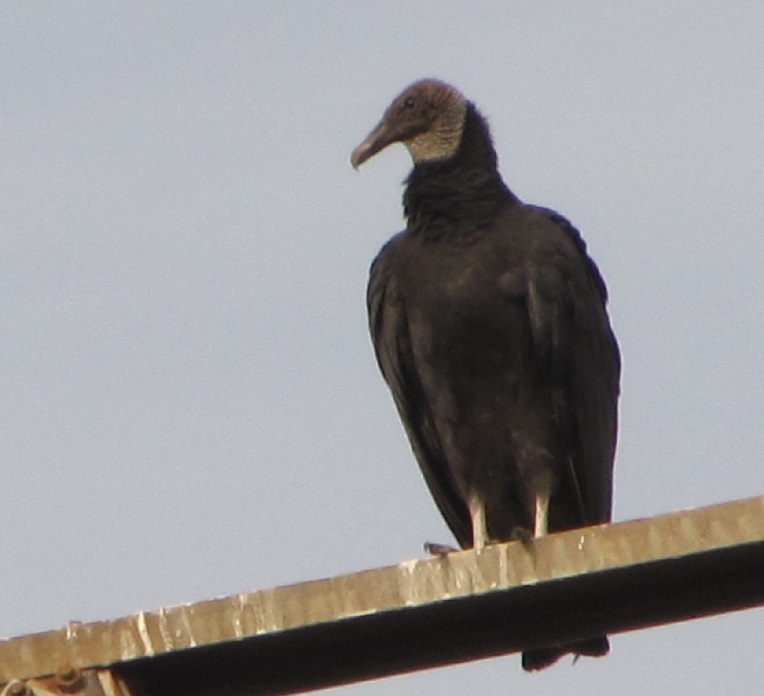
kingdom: Animalia
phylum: Chordata
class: Aves
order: Accipitriformes
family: Cathartidae
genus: Coragyps
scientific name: Coragyps atratus
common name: Black vulture
